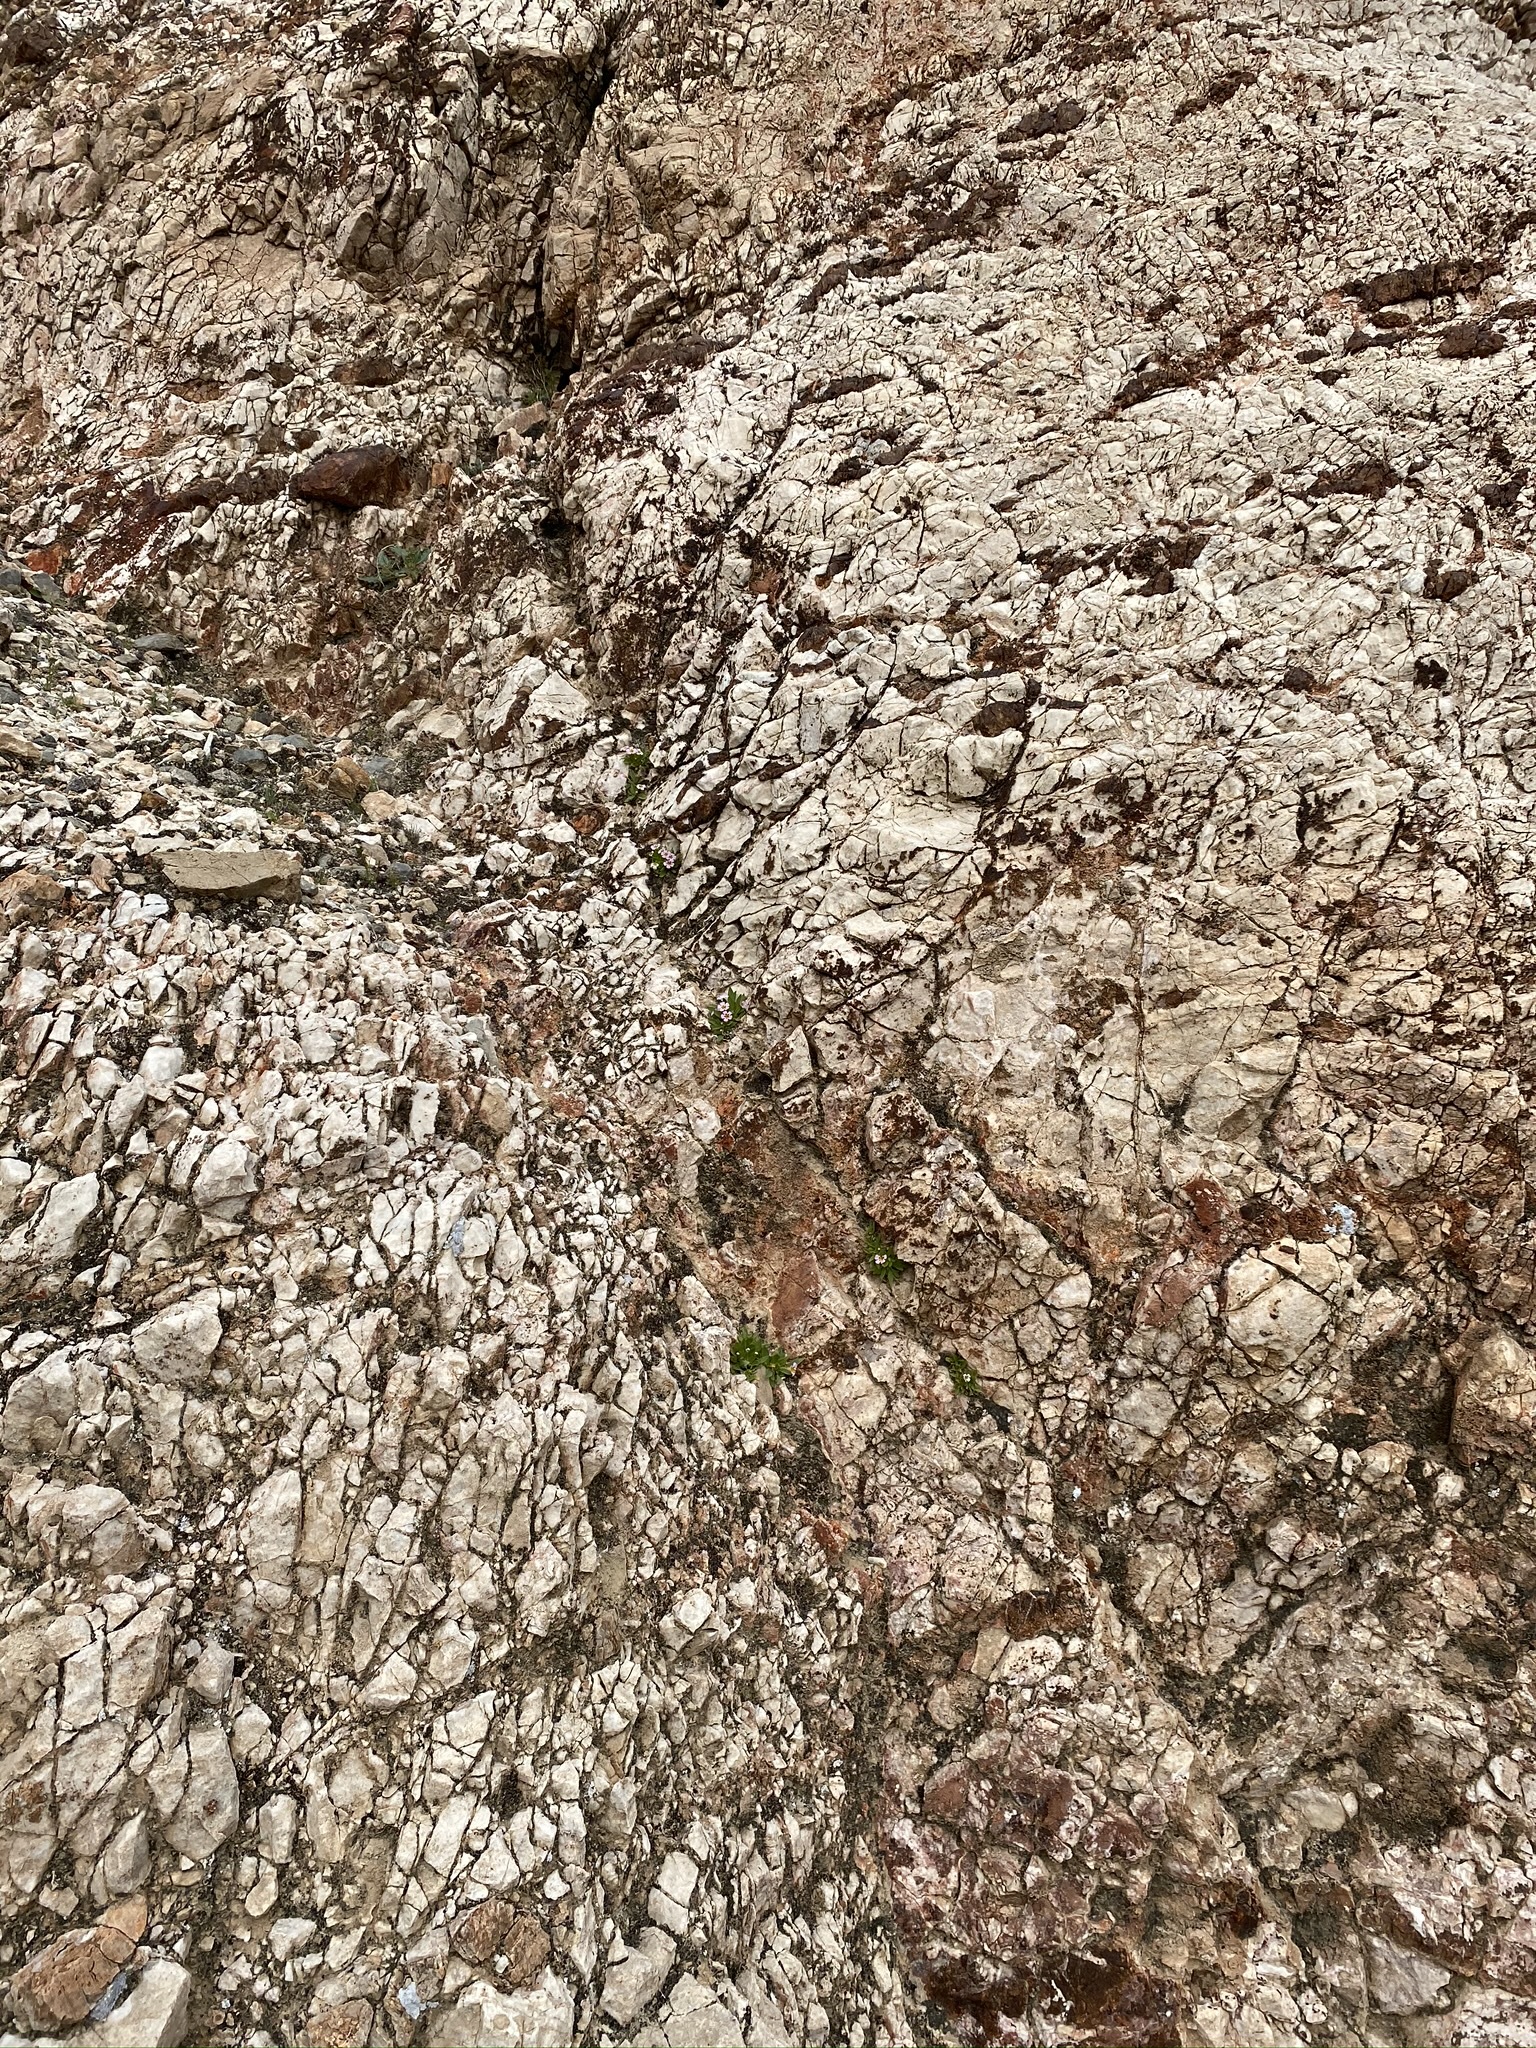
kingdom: Plantae
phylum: Tracheophyta
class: Magnoliopsida
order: Lamiales
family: Phrymaceae
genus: Diplacus
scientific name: Diplacus rupicola
